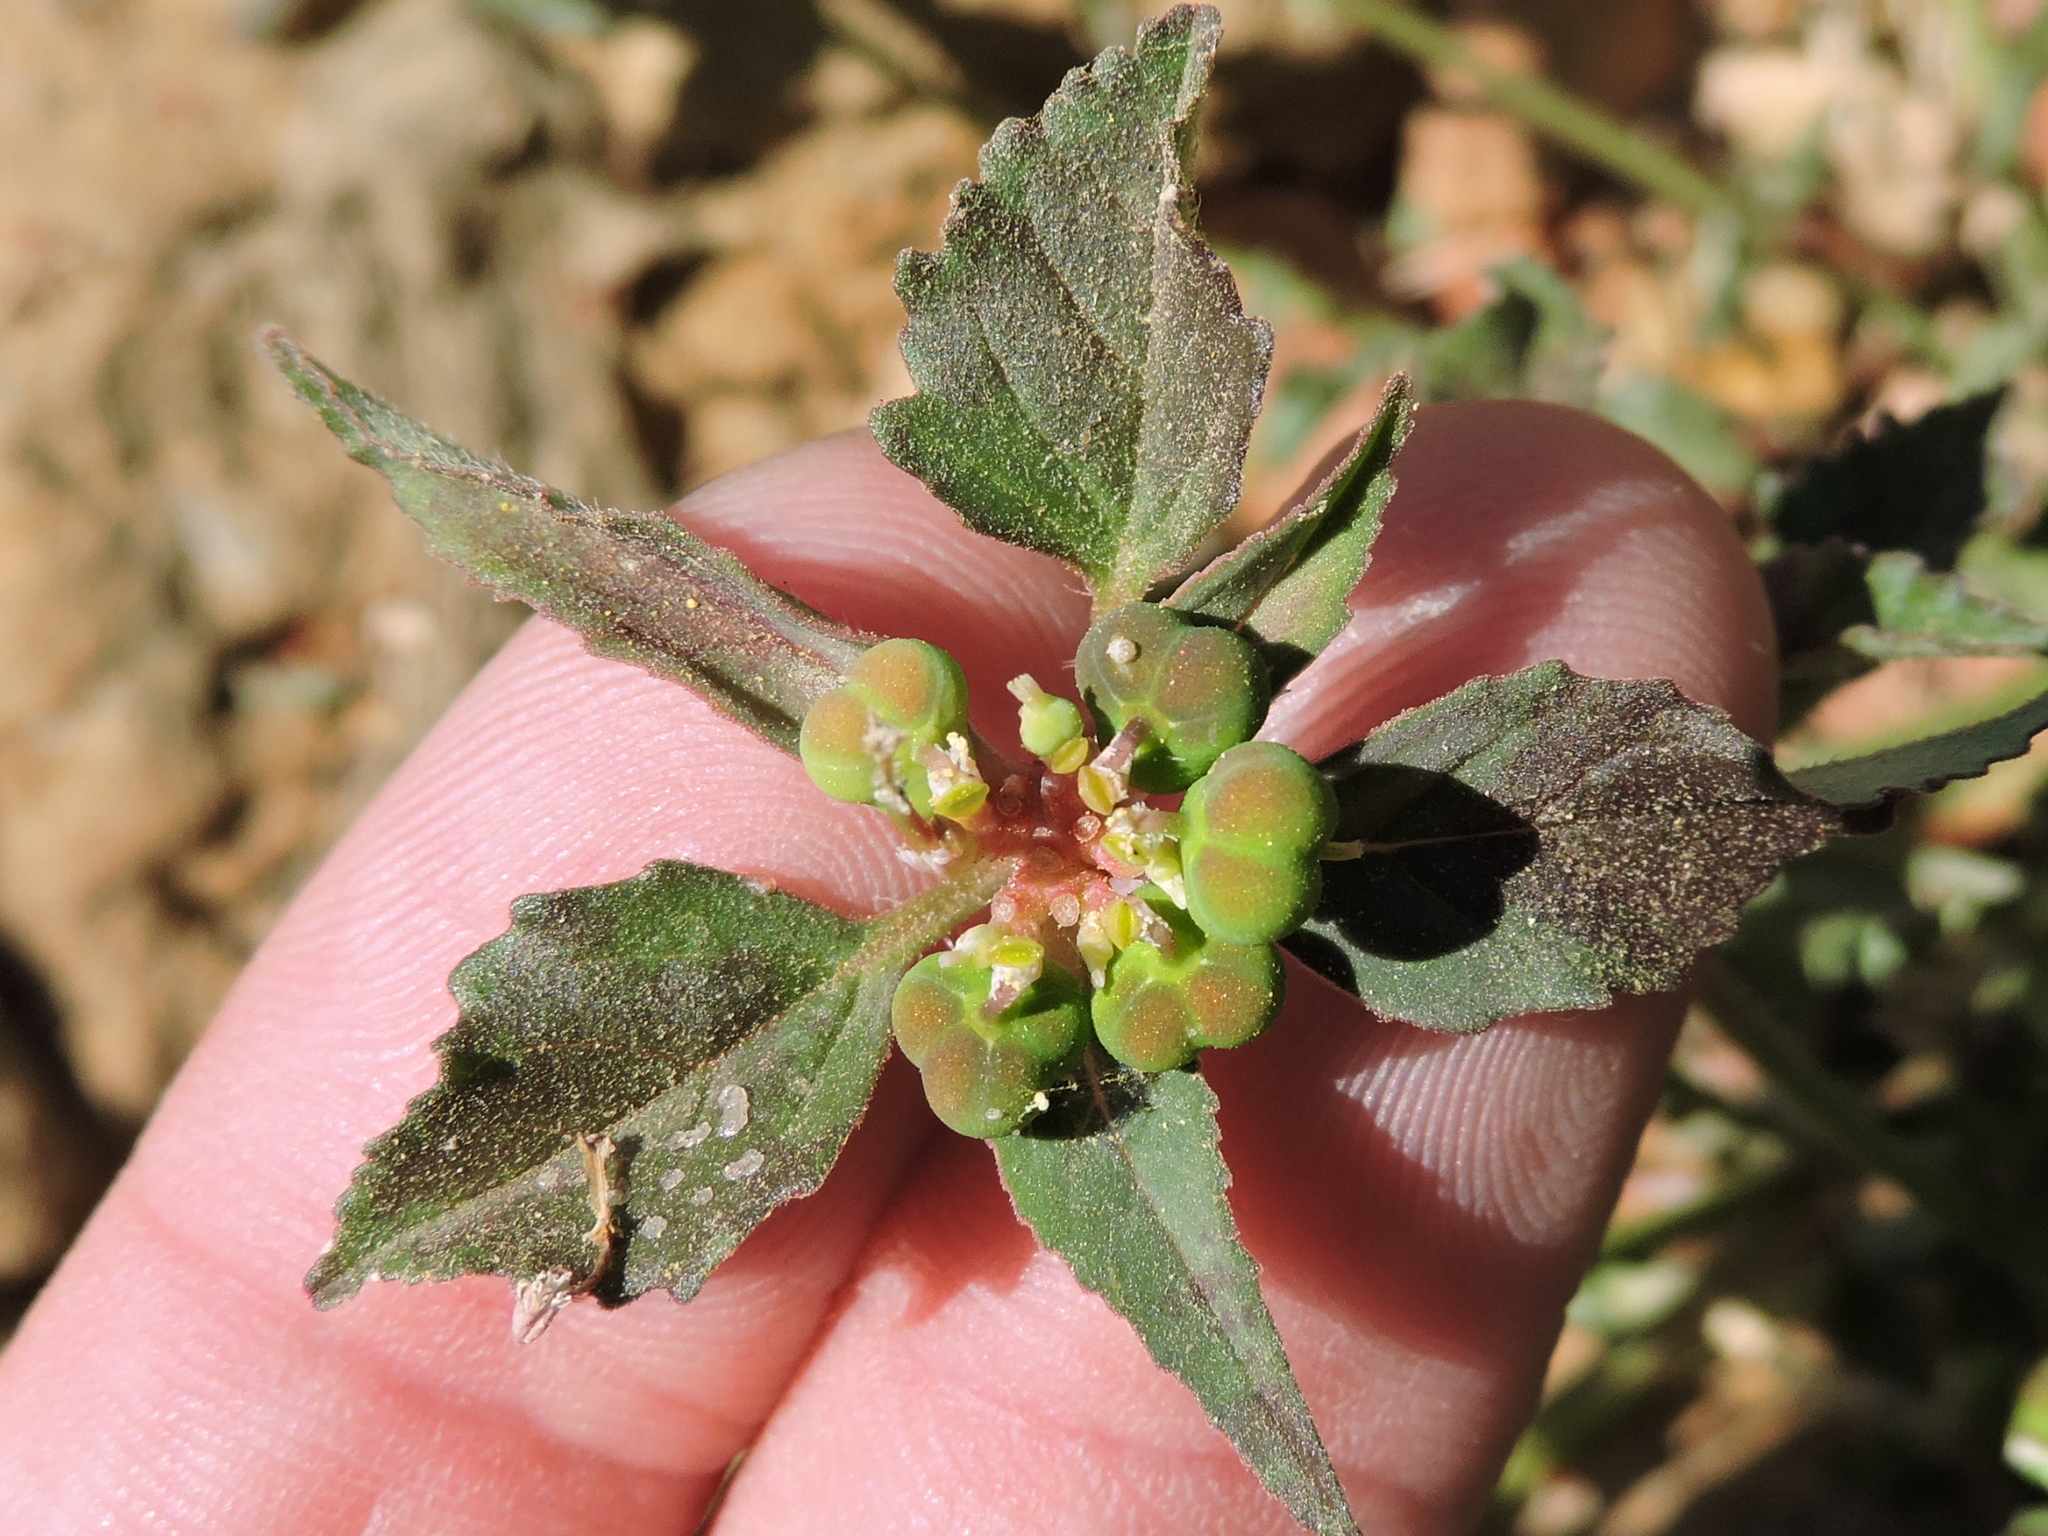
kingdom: Plantae
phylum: Tracheophyta
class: Magnoliopsida
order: Malpighiales
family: Euphorbiaceae
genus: Euphorbia
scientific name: Euphorbia dentata
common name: Dentate spurge
